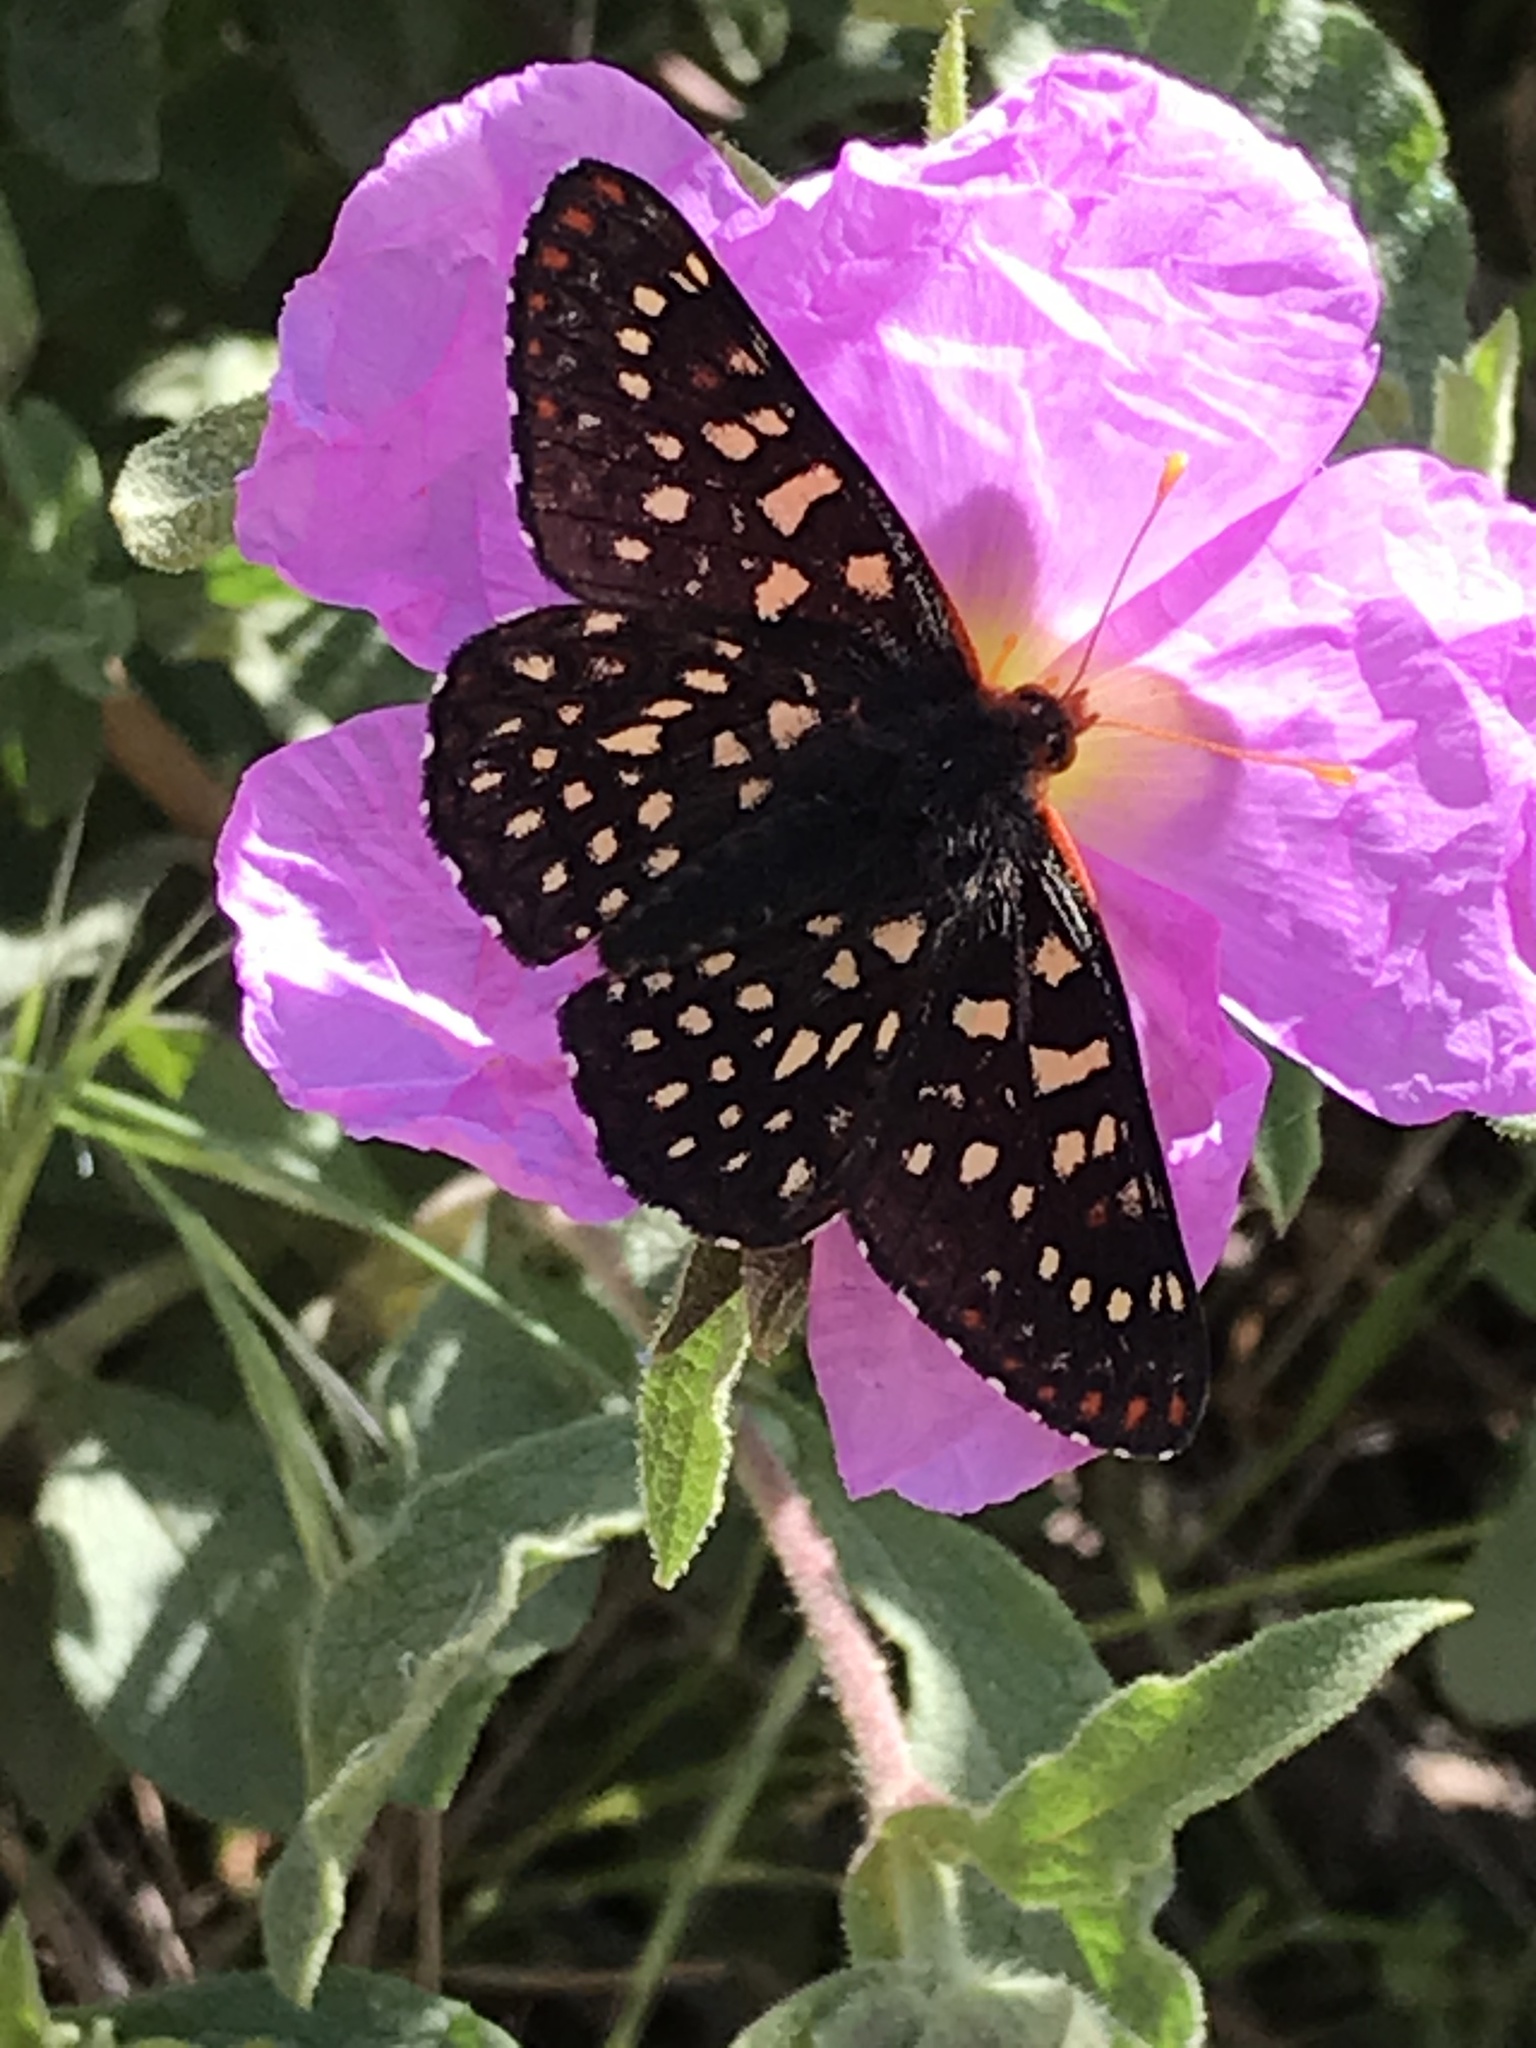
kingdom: Animalia
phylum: Arthropoda
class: Insecta
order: Lepidoptera
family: Nymphalidae
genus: Occidryas
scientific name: Occidryas chalcedona
